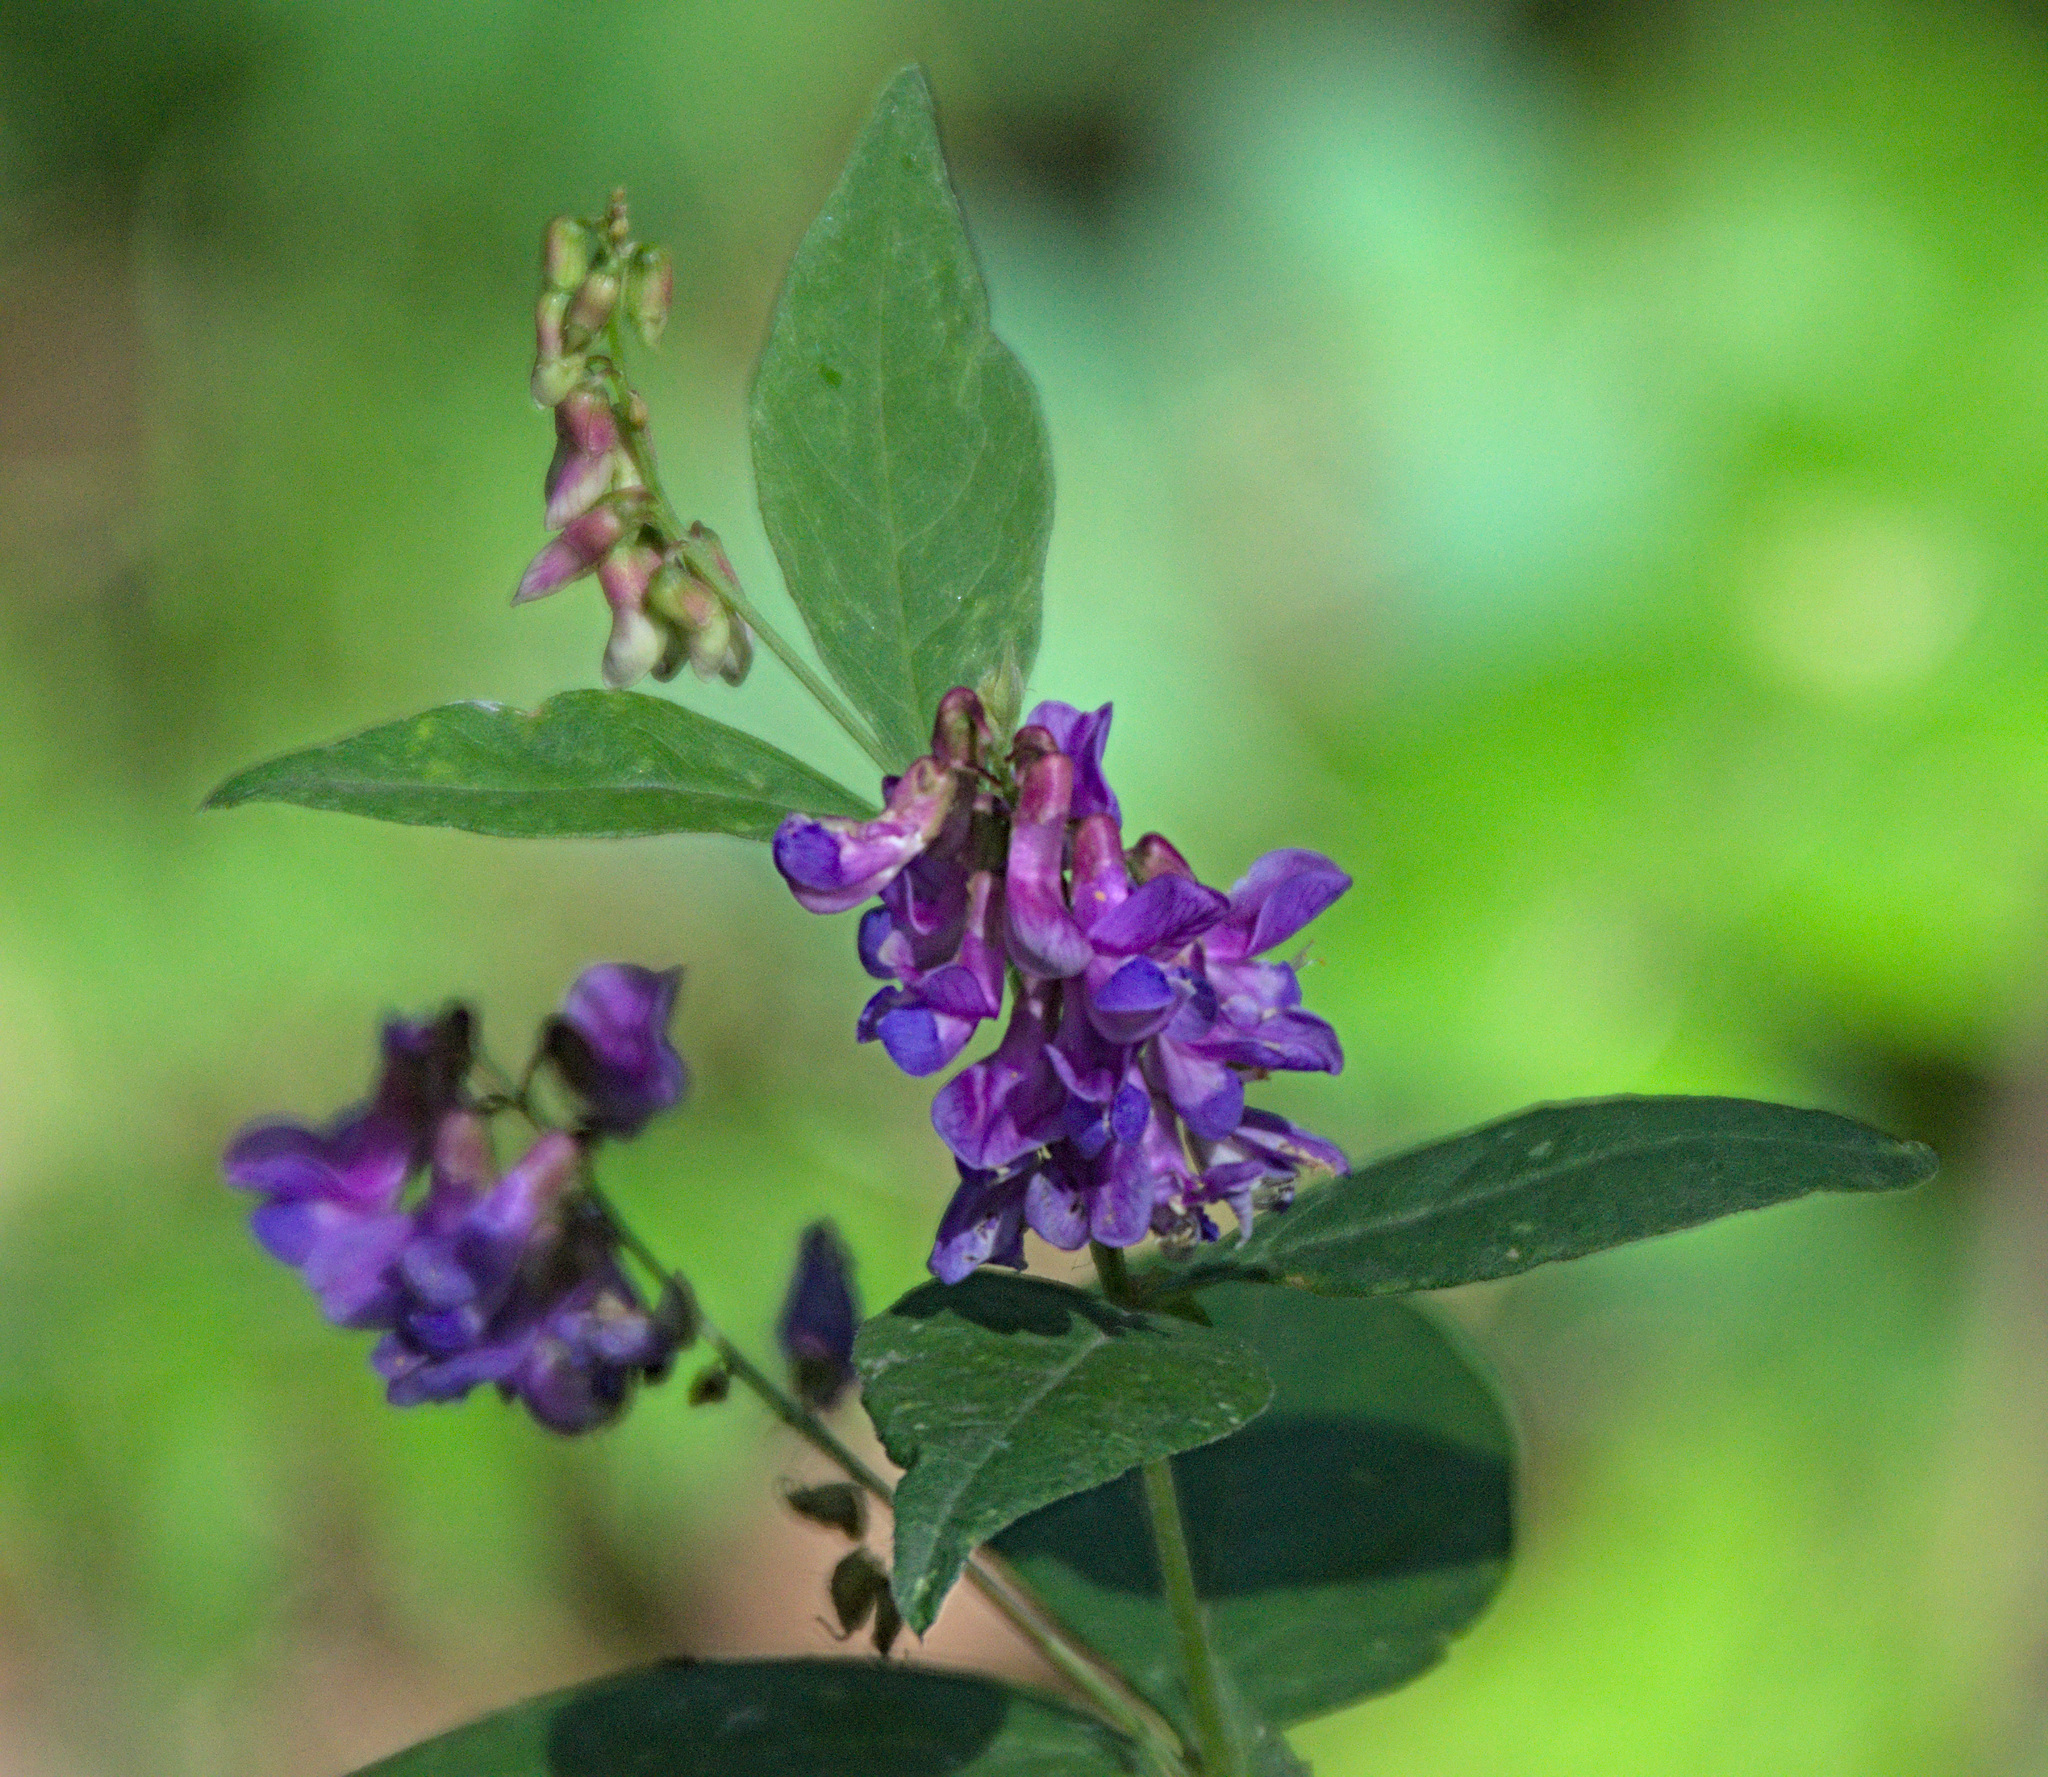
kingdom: Plantae
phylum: Tracheophyta
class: Magnoliopsida
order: Fabales
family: Fabaceae
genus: Vicia
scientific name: Vicia unijuga
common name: Two-leaf vetch
